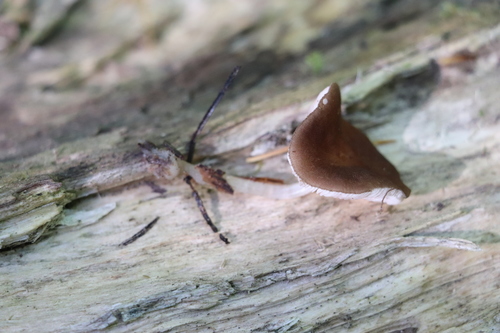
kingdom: Fungi
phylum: Basidiomycota
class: Agaricomycetes
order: Agaricales
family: Pluteaceae
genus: Pluteus
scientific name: Pluteus podospileus
